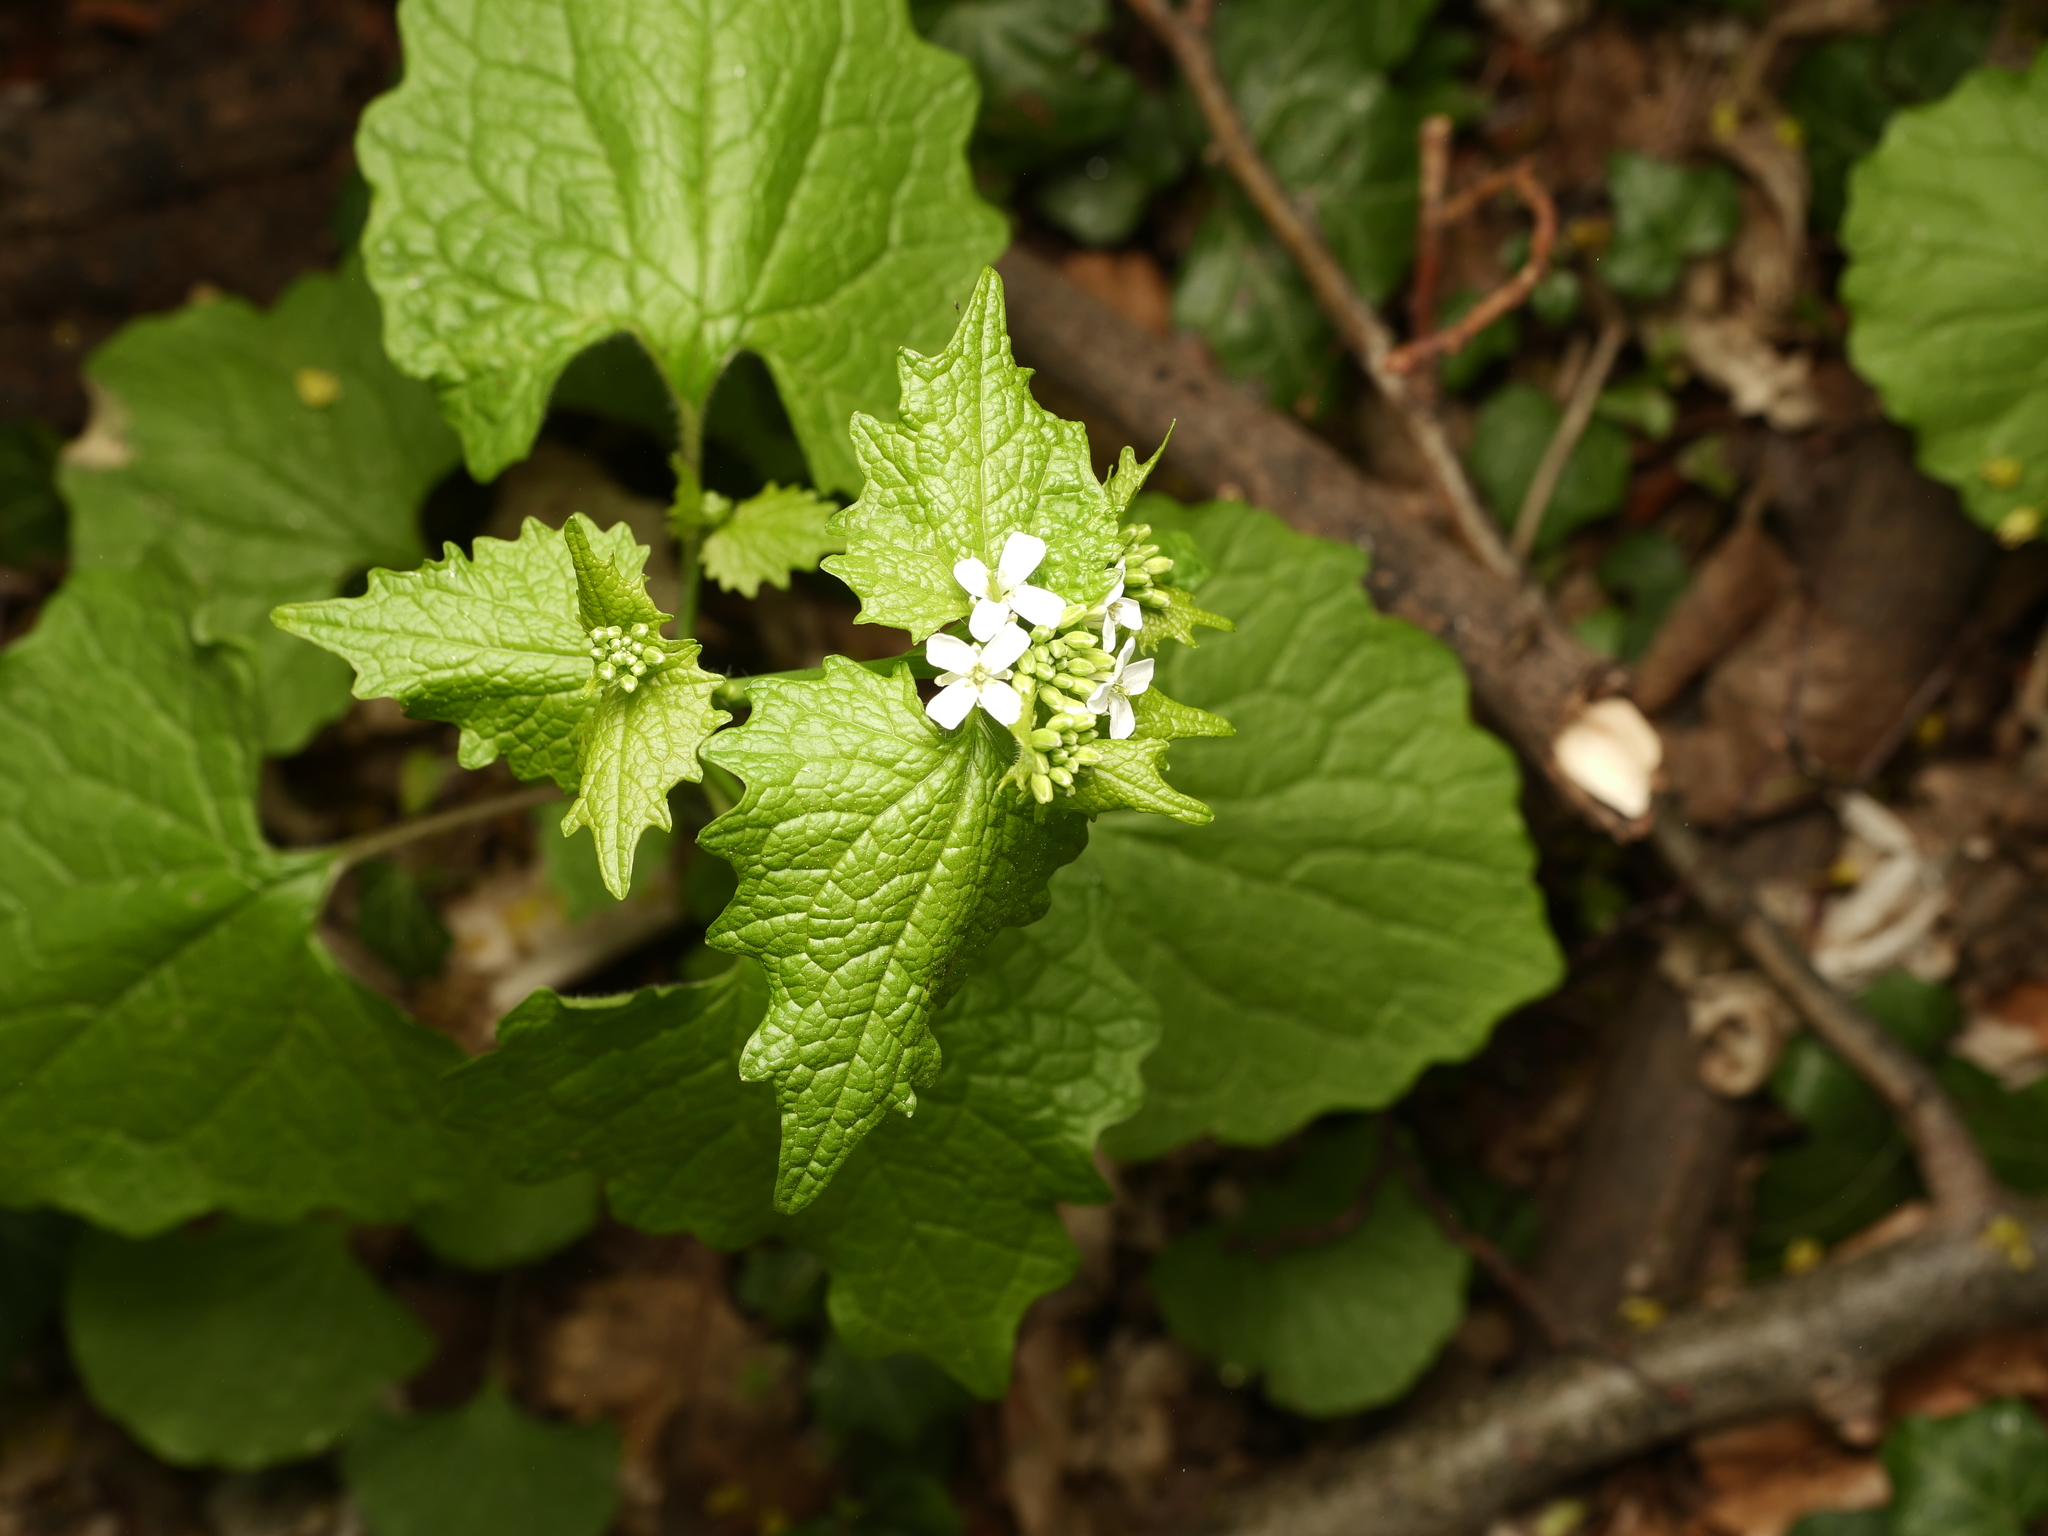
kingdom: Plantae
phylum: Tracheophyta
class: Magnoliopsida
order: Brassicales
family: Brassicaceae
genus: Alliaria
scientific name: Alliaria petiolata
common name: Garlic mustard
